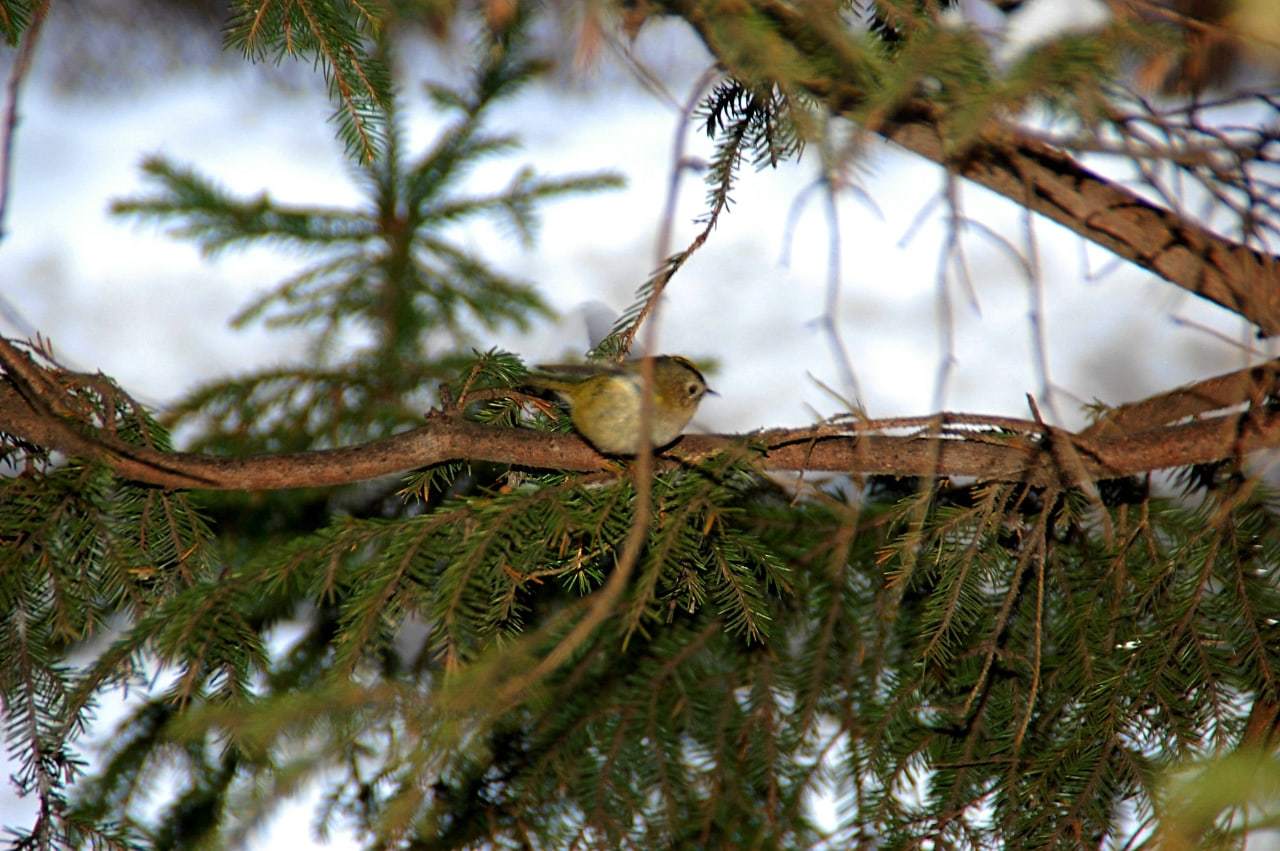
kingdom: Animalia
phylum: Chordata
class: Aves
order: Passeriformes
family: Regulidae
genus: Regulus
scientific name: Regulus regulus
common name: Goldcrest
